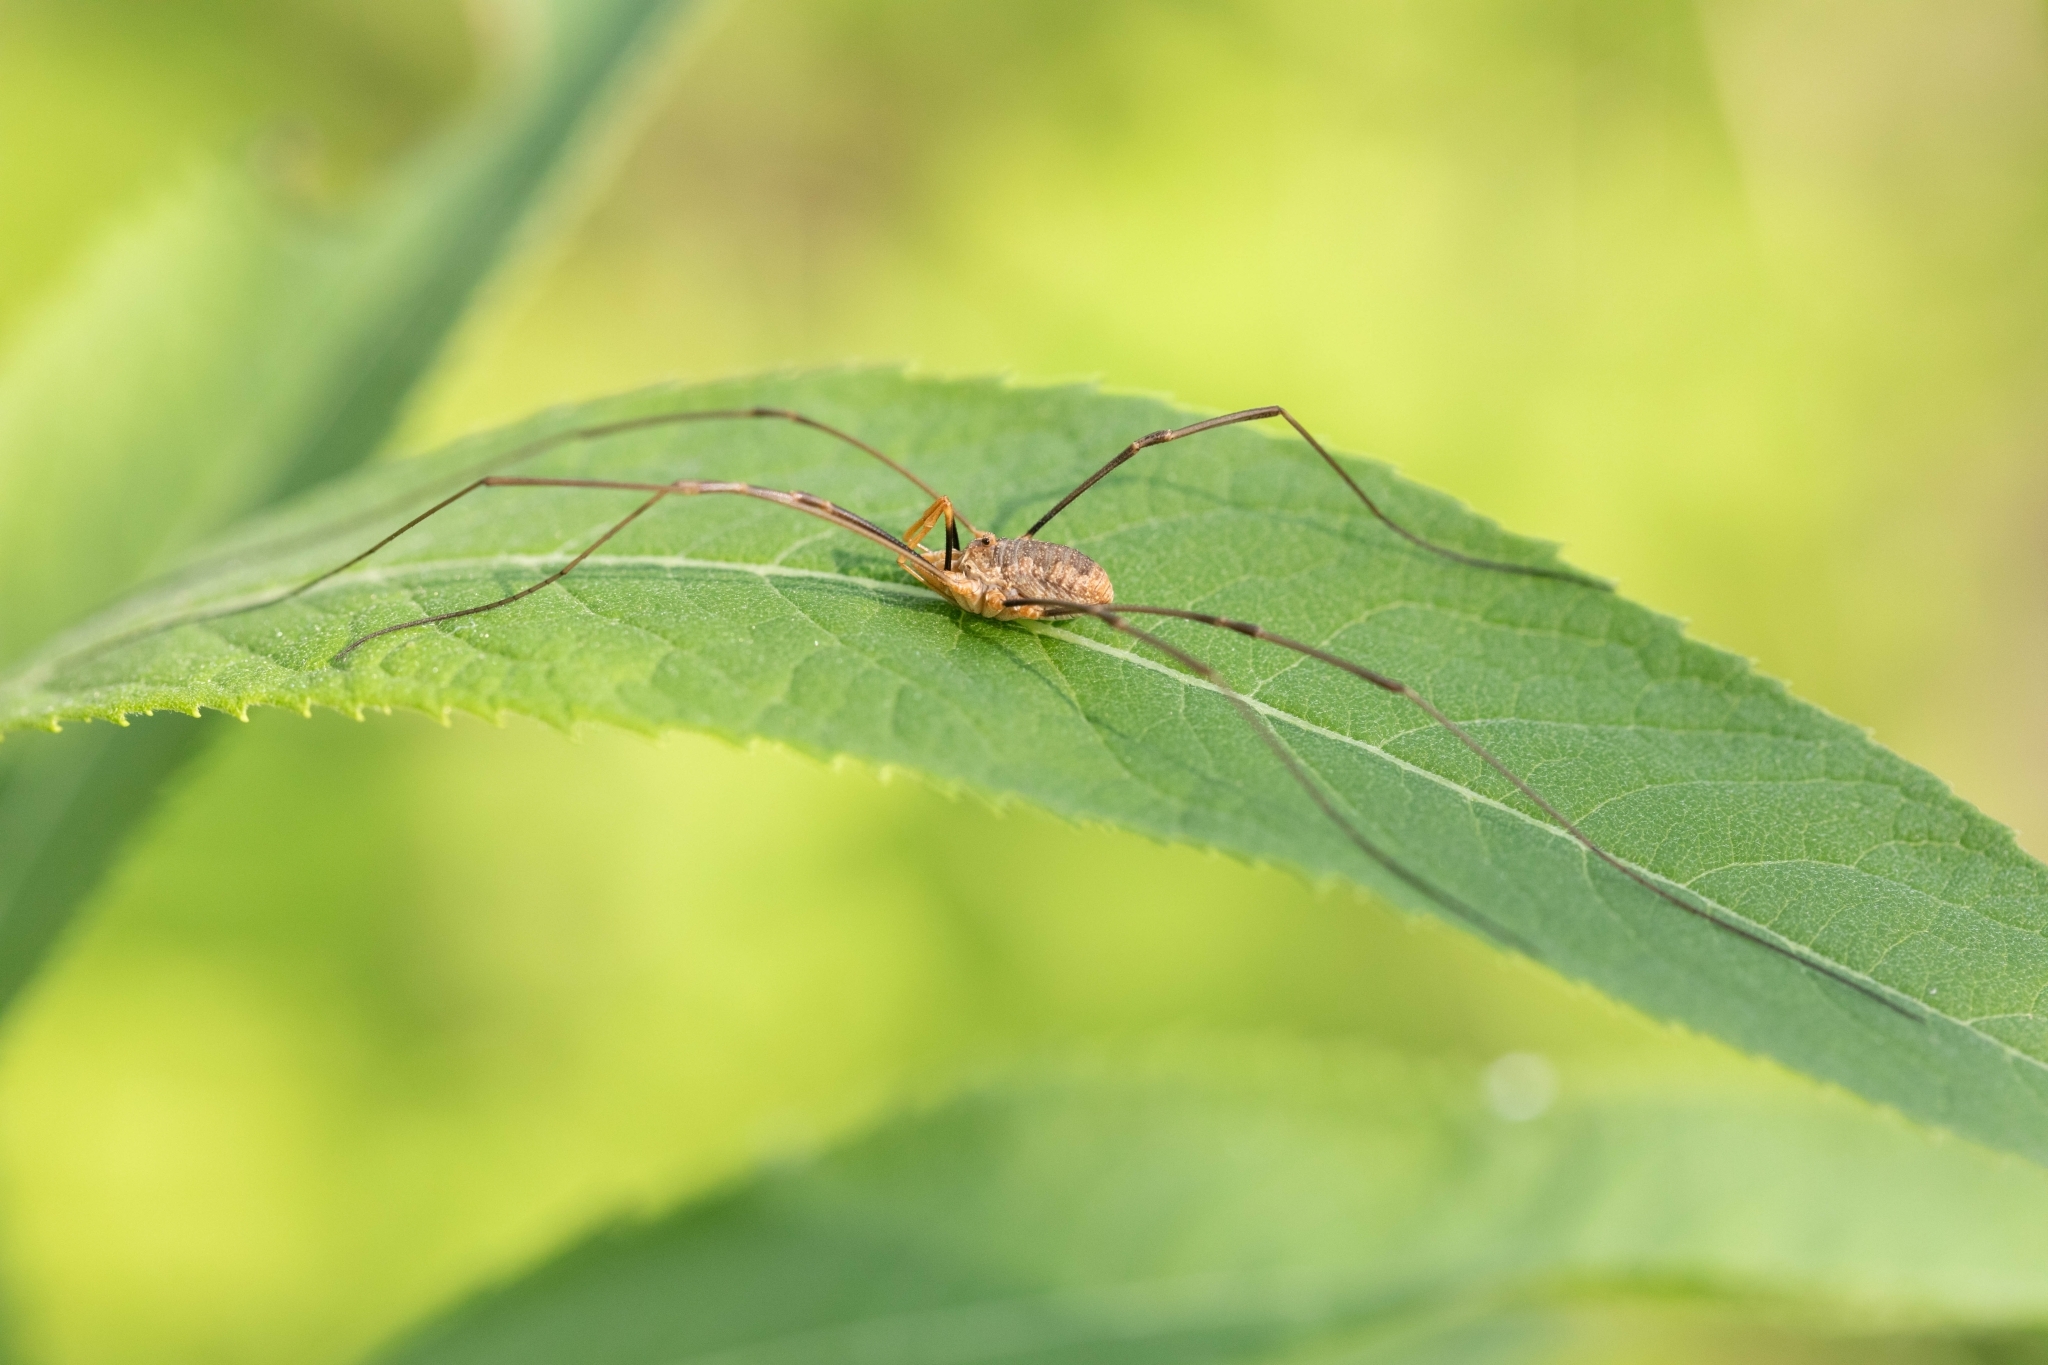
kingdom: Animalia
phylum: Arthropoda
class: Arachnida
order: Opiliones
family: Phalangiidae
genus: Phalangium
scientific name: Phalangium opilio
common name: Daddy longleg
